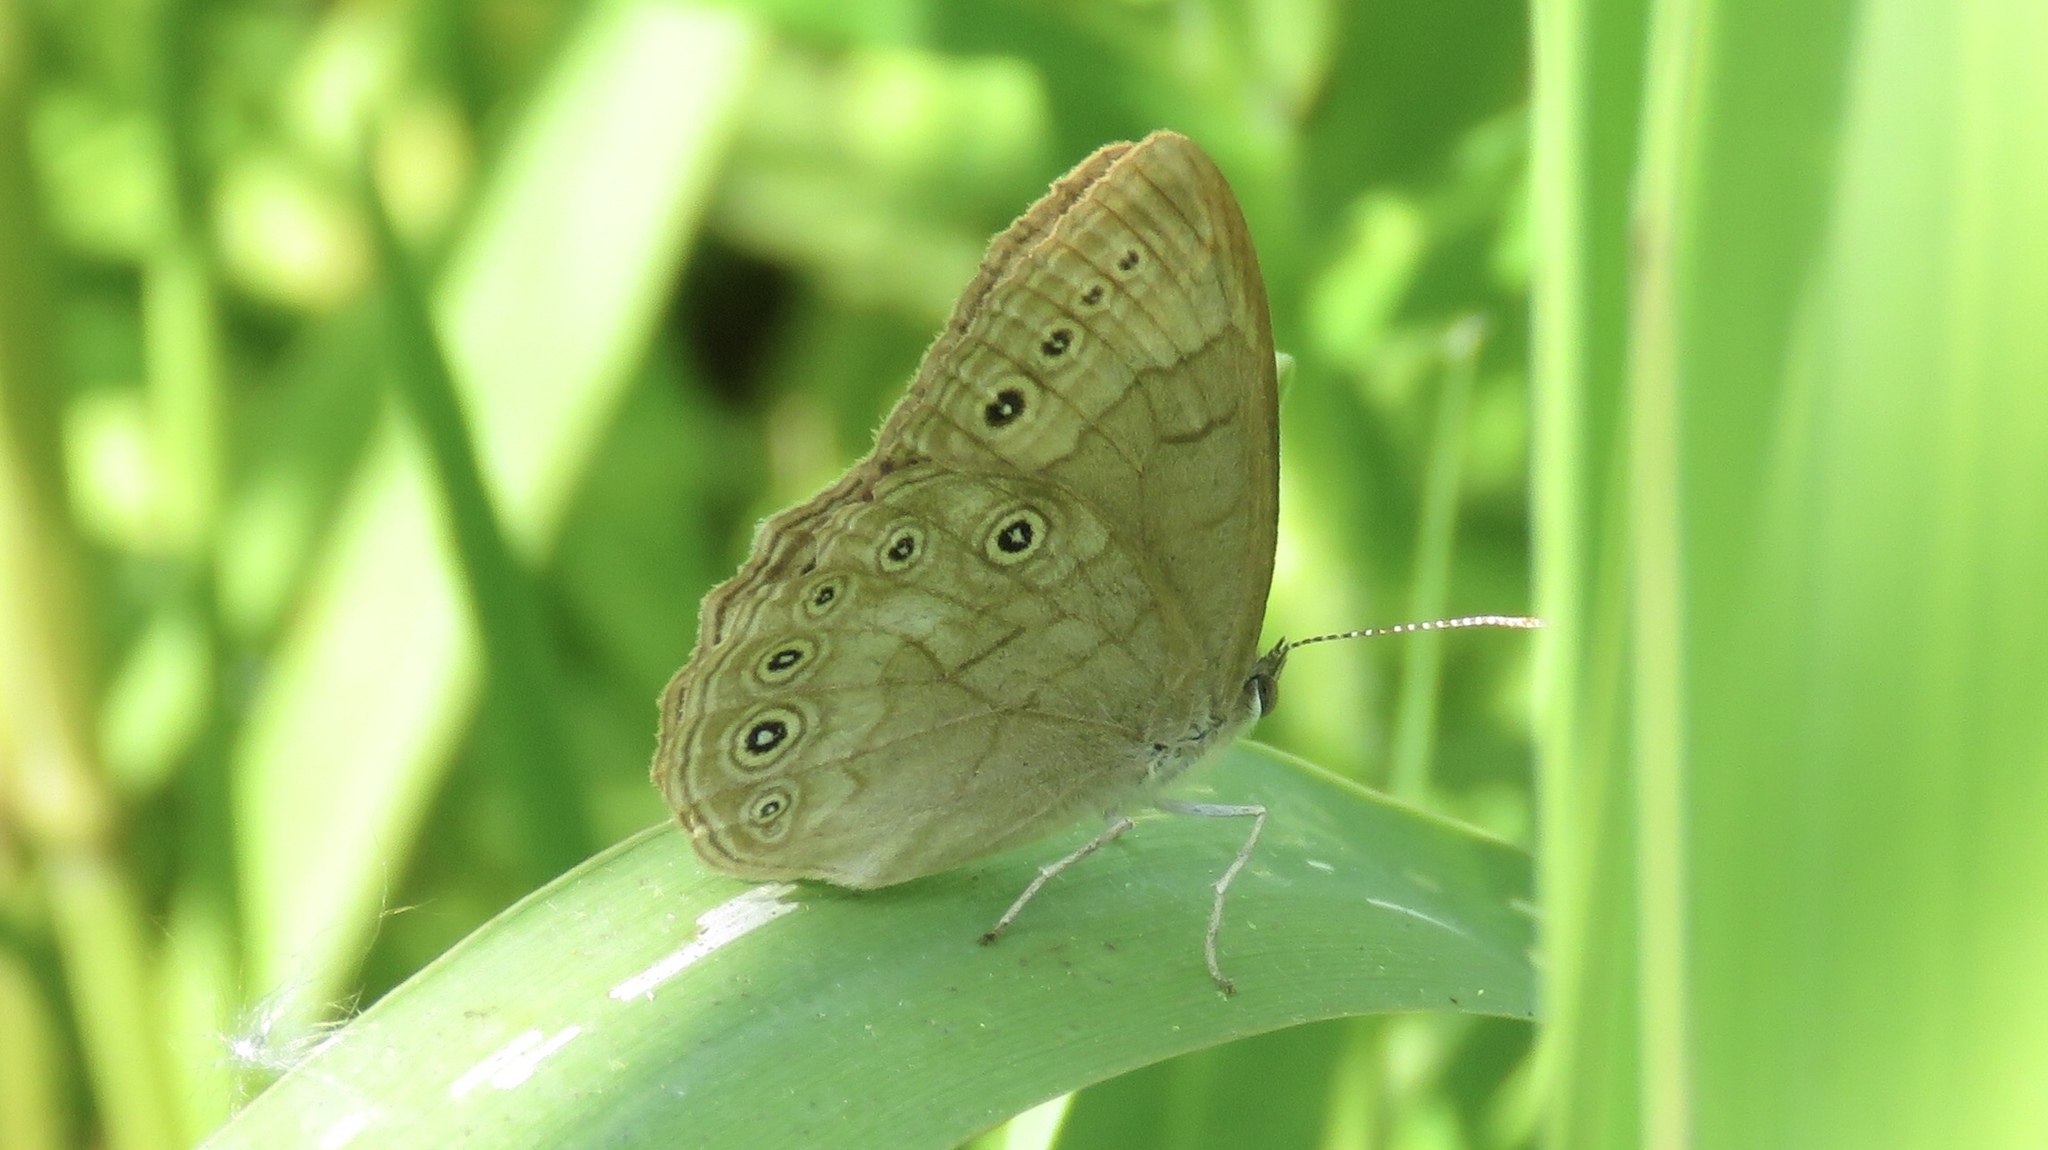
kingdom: Animalia
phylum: Arthropoda
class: Insecta
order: Lepidoptera
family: Nymphalidae
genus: Lethe
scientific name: Lethe eurydice
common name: Eyed brown
